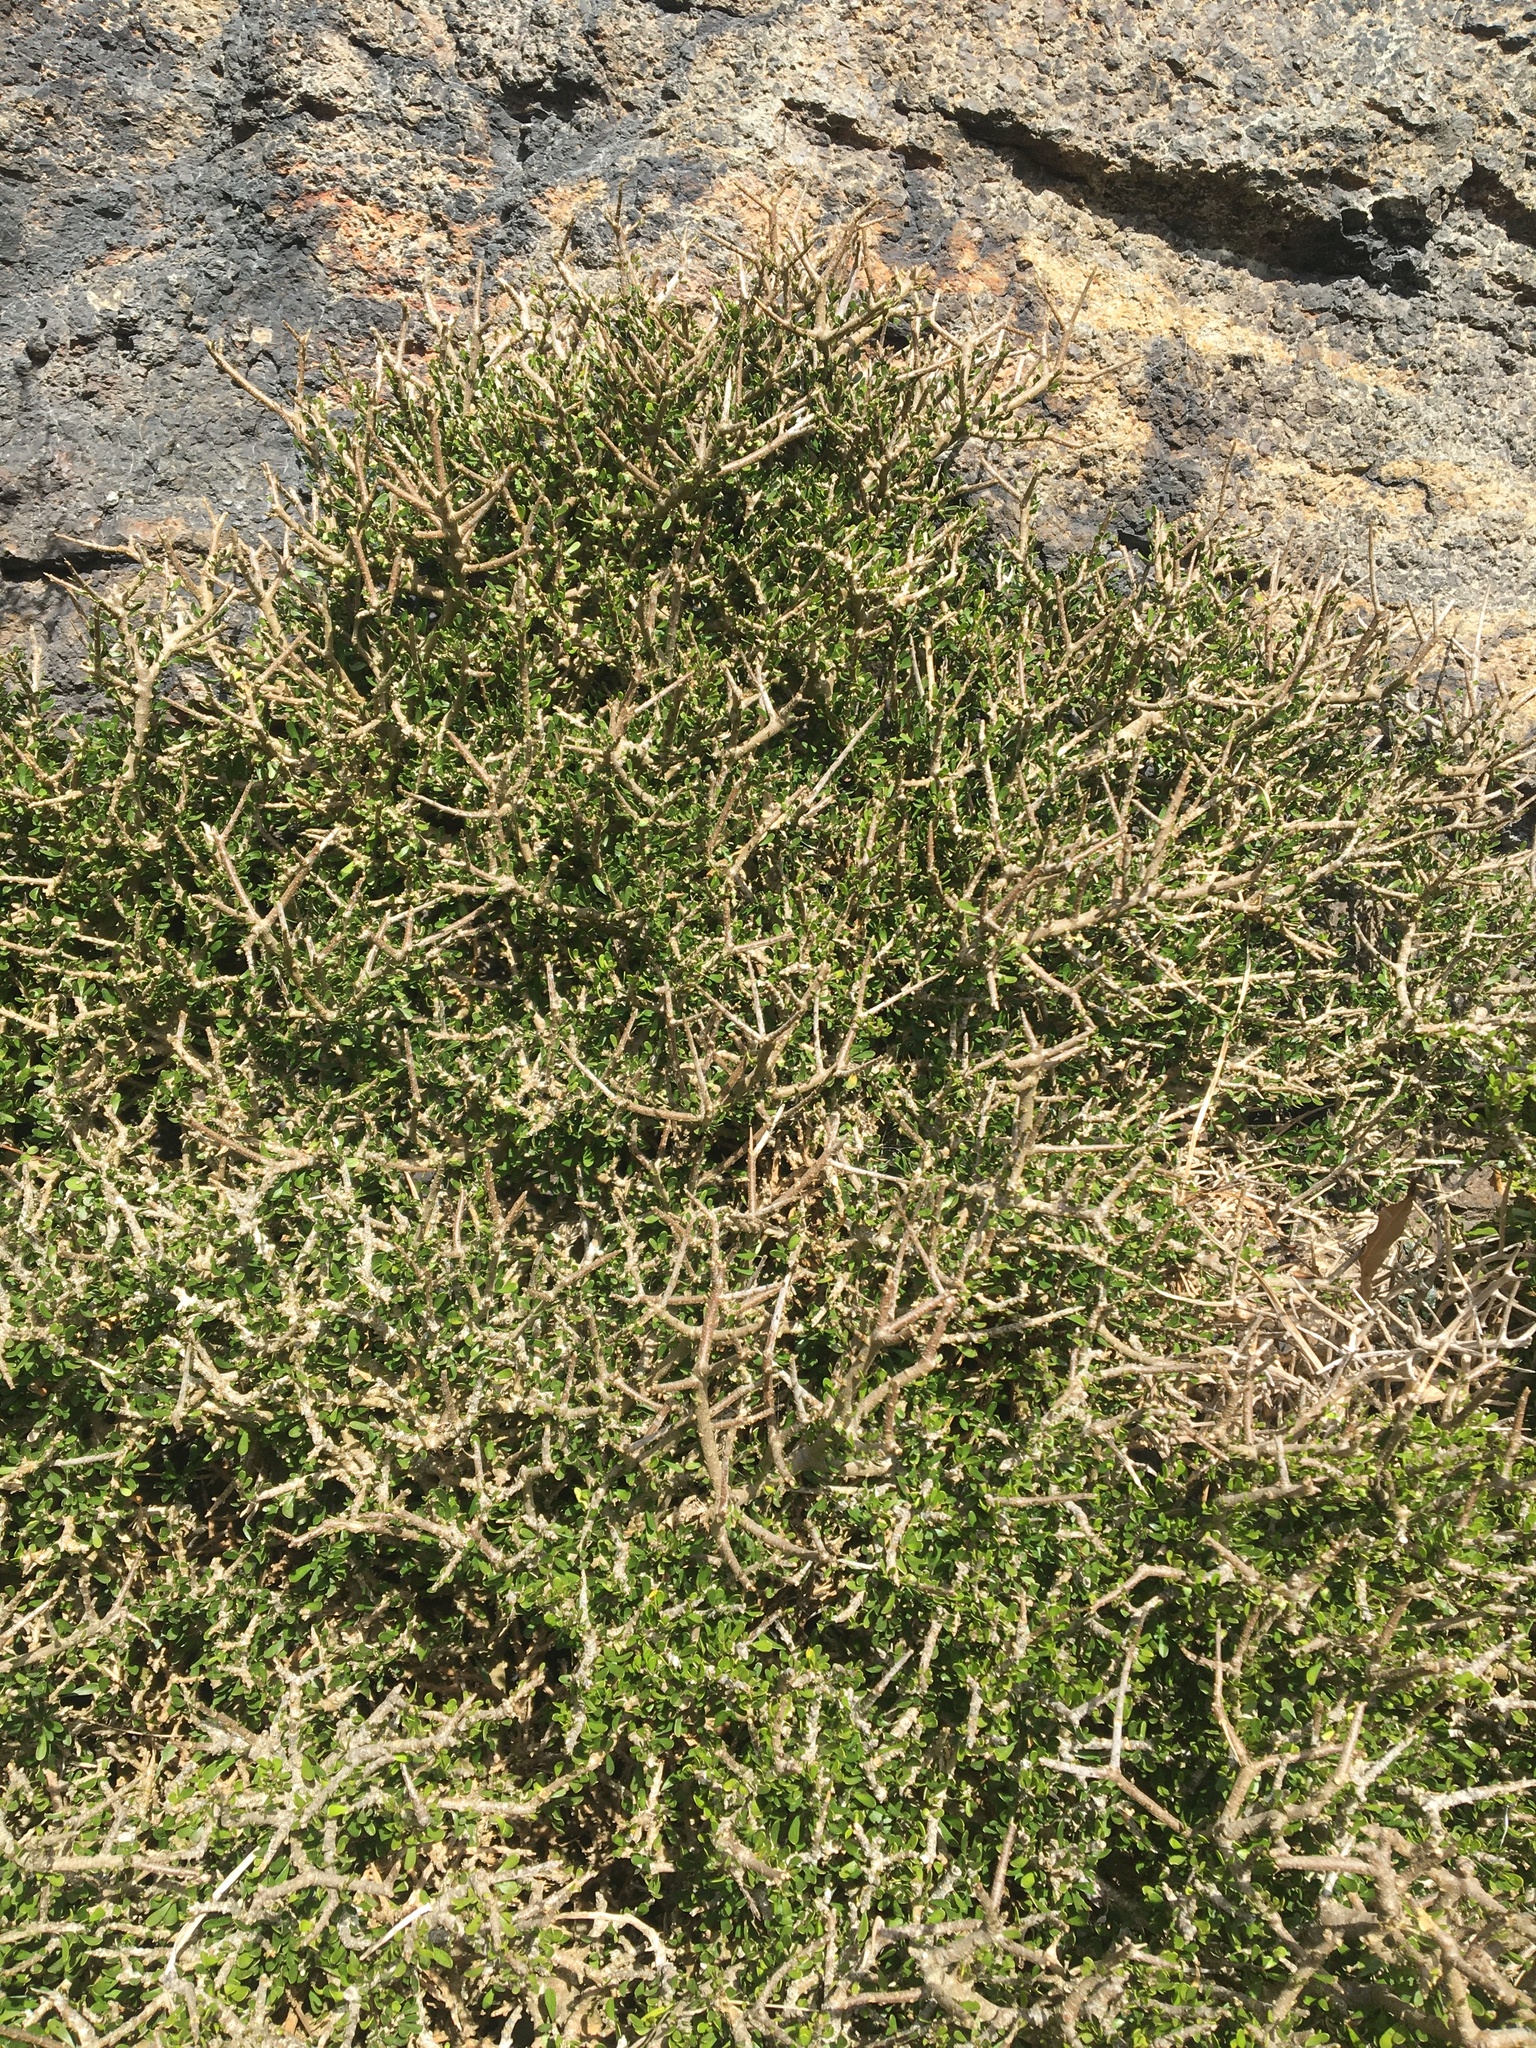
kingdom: Plantae
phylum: Tracheophyta
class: Magnoliopsida
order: Malpighiales
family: Violaceae
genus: Melicytus
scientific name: Melicytus alpinus
